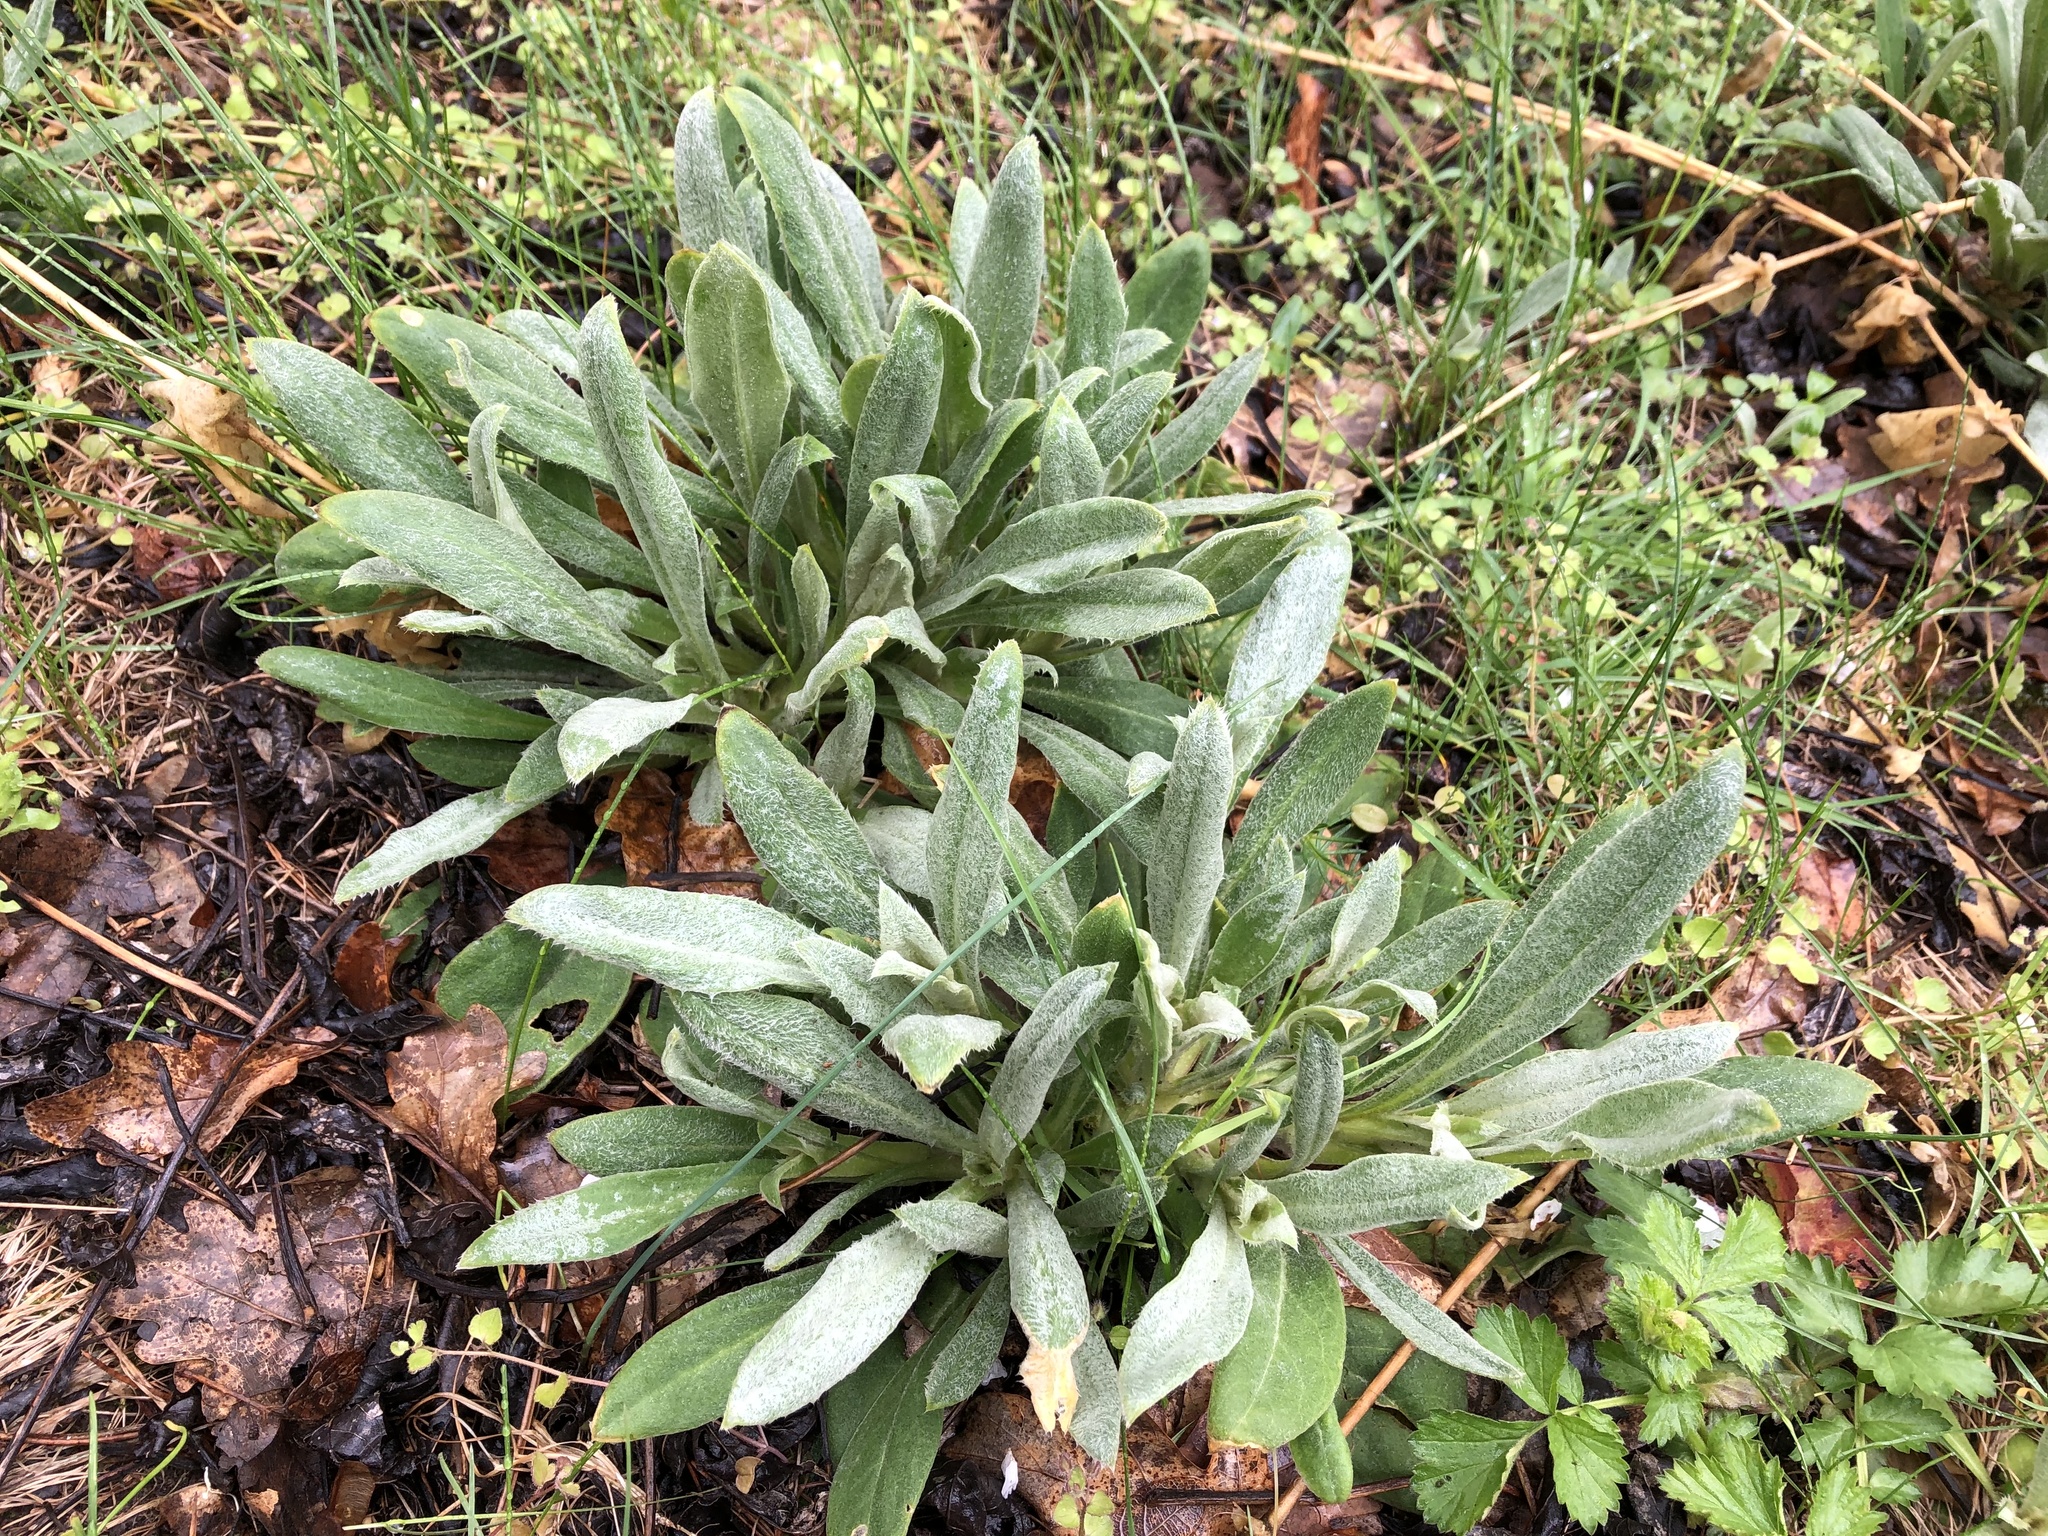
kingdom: Plantae
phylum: Tracheophyta
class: Magnoliopsida
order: Caryophyllales
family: Caryophyllaceae
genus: Silene
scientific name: Silene coronaria
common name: Rose campion
